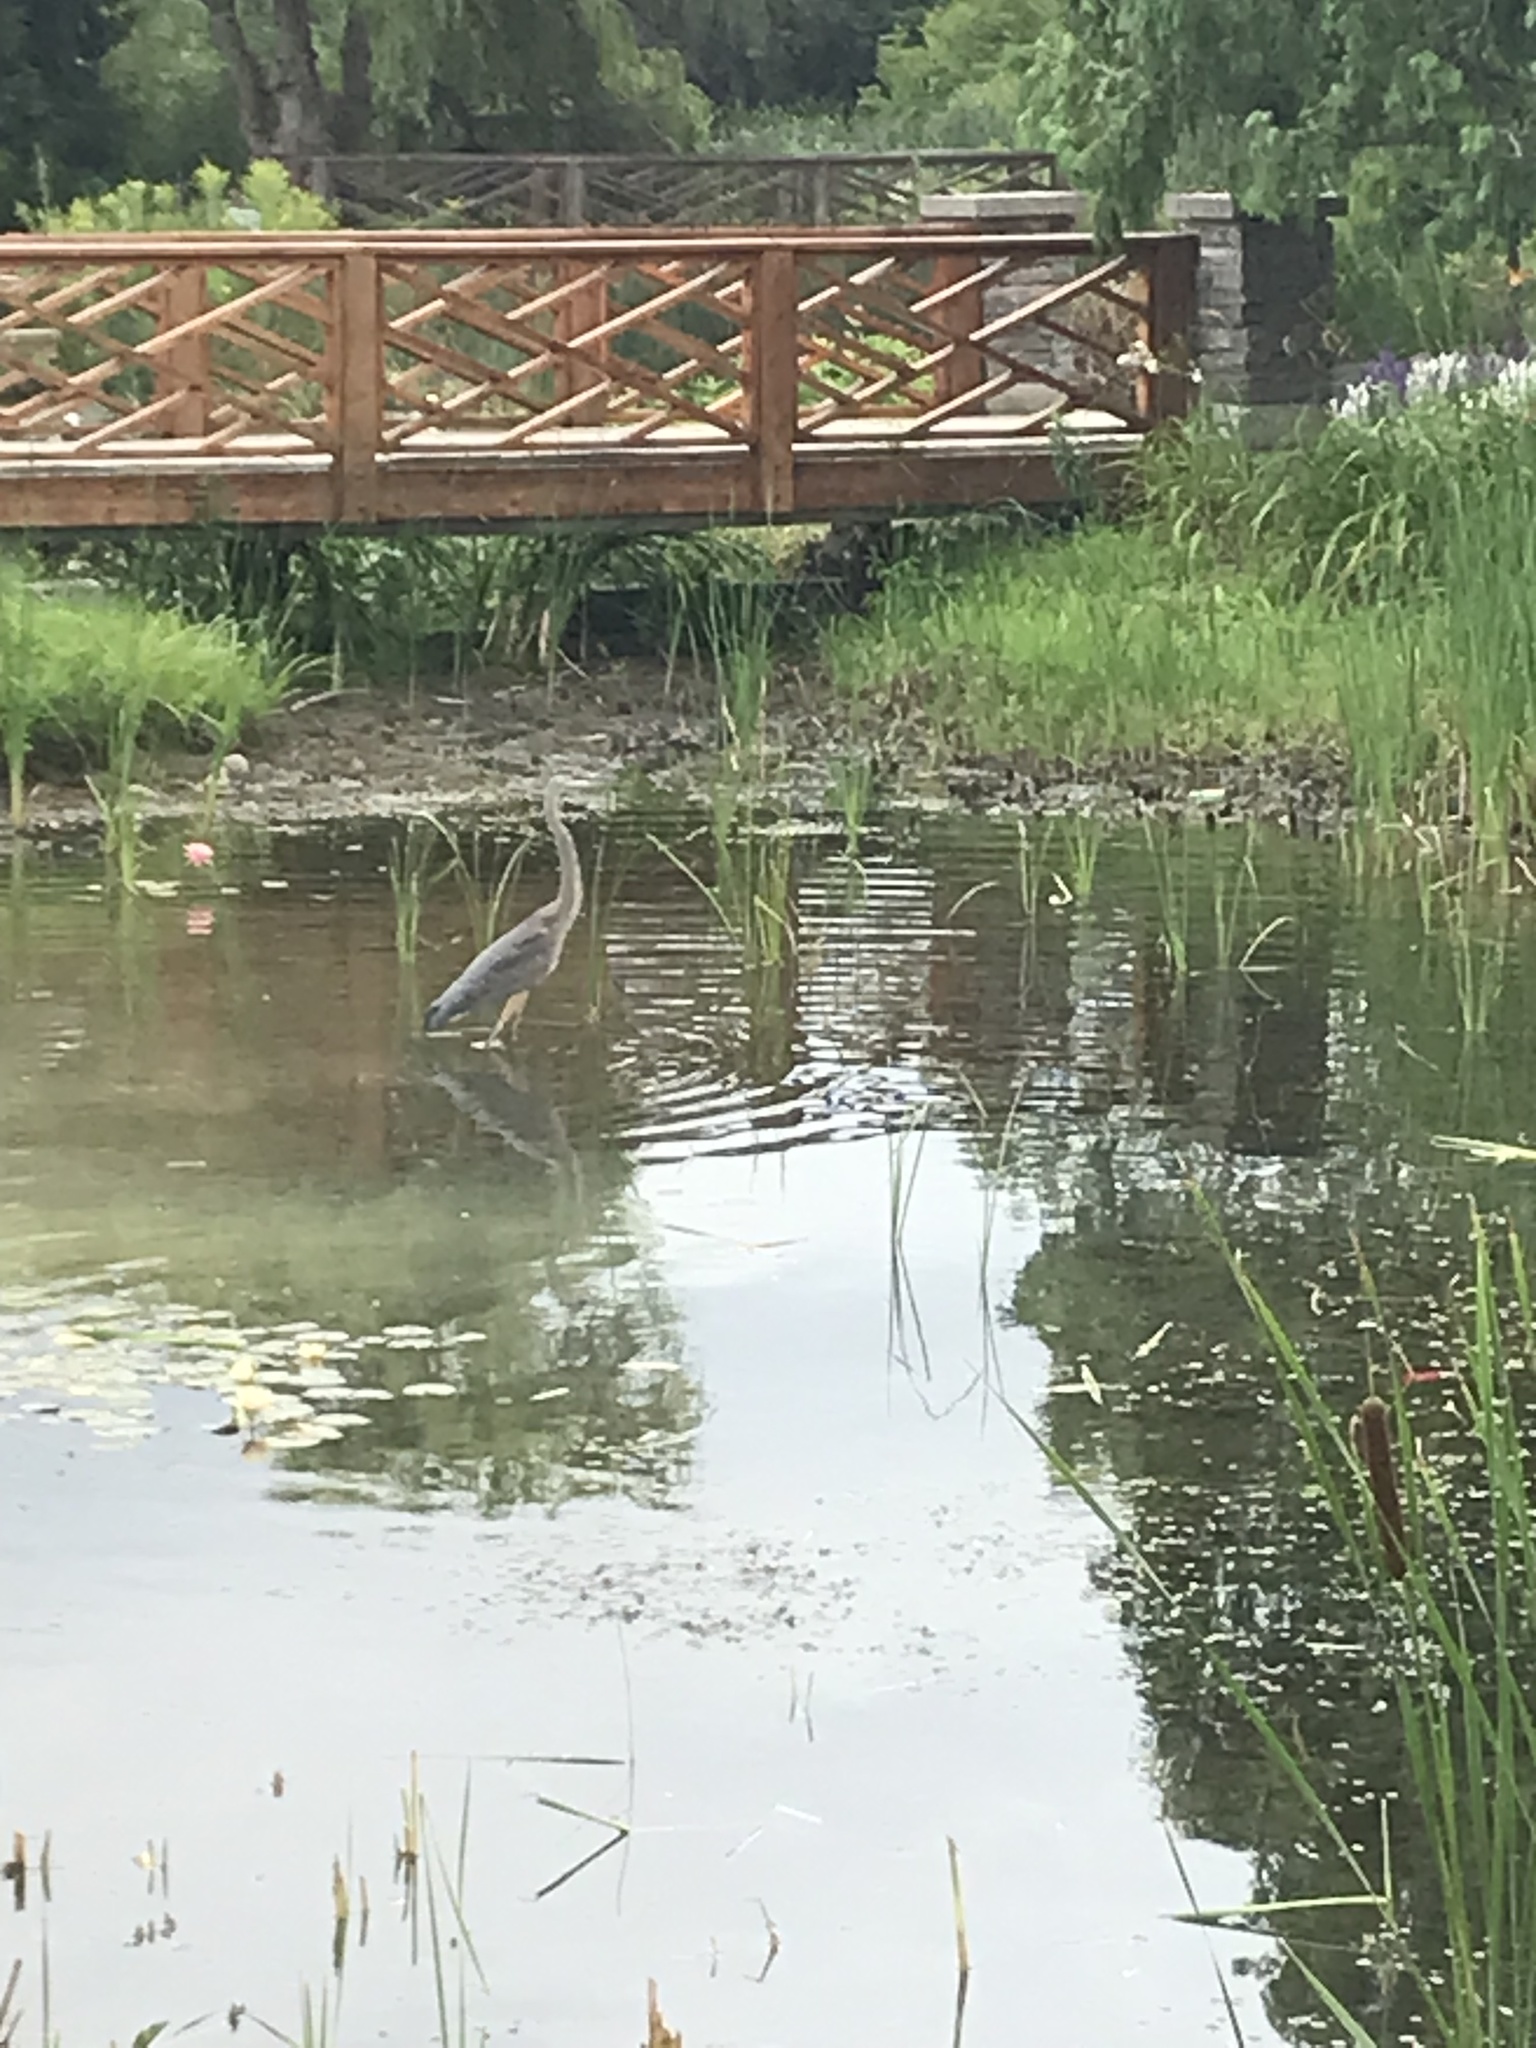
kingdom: Animalia
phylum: Chordata
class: Aves
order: Pelecaniformes
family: Ardeidae
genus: Ardea
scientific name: Ardea herodias
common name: Great blue heron
